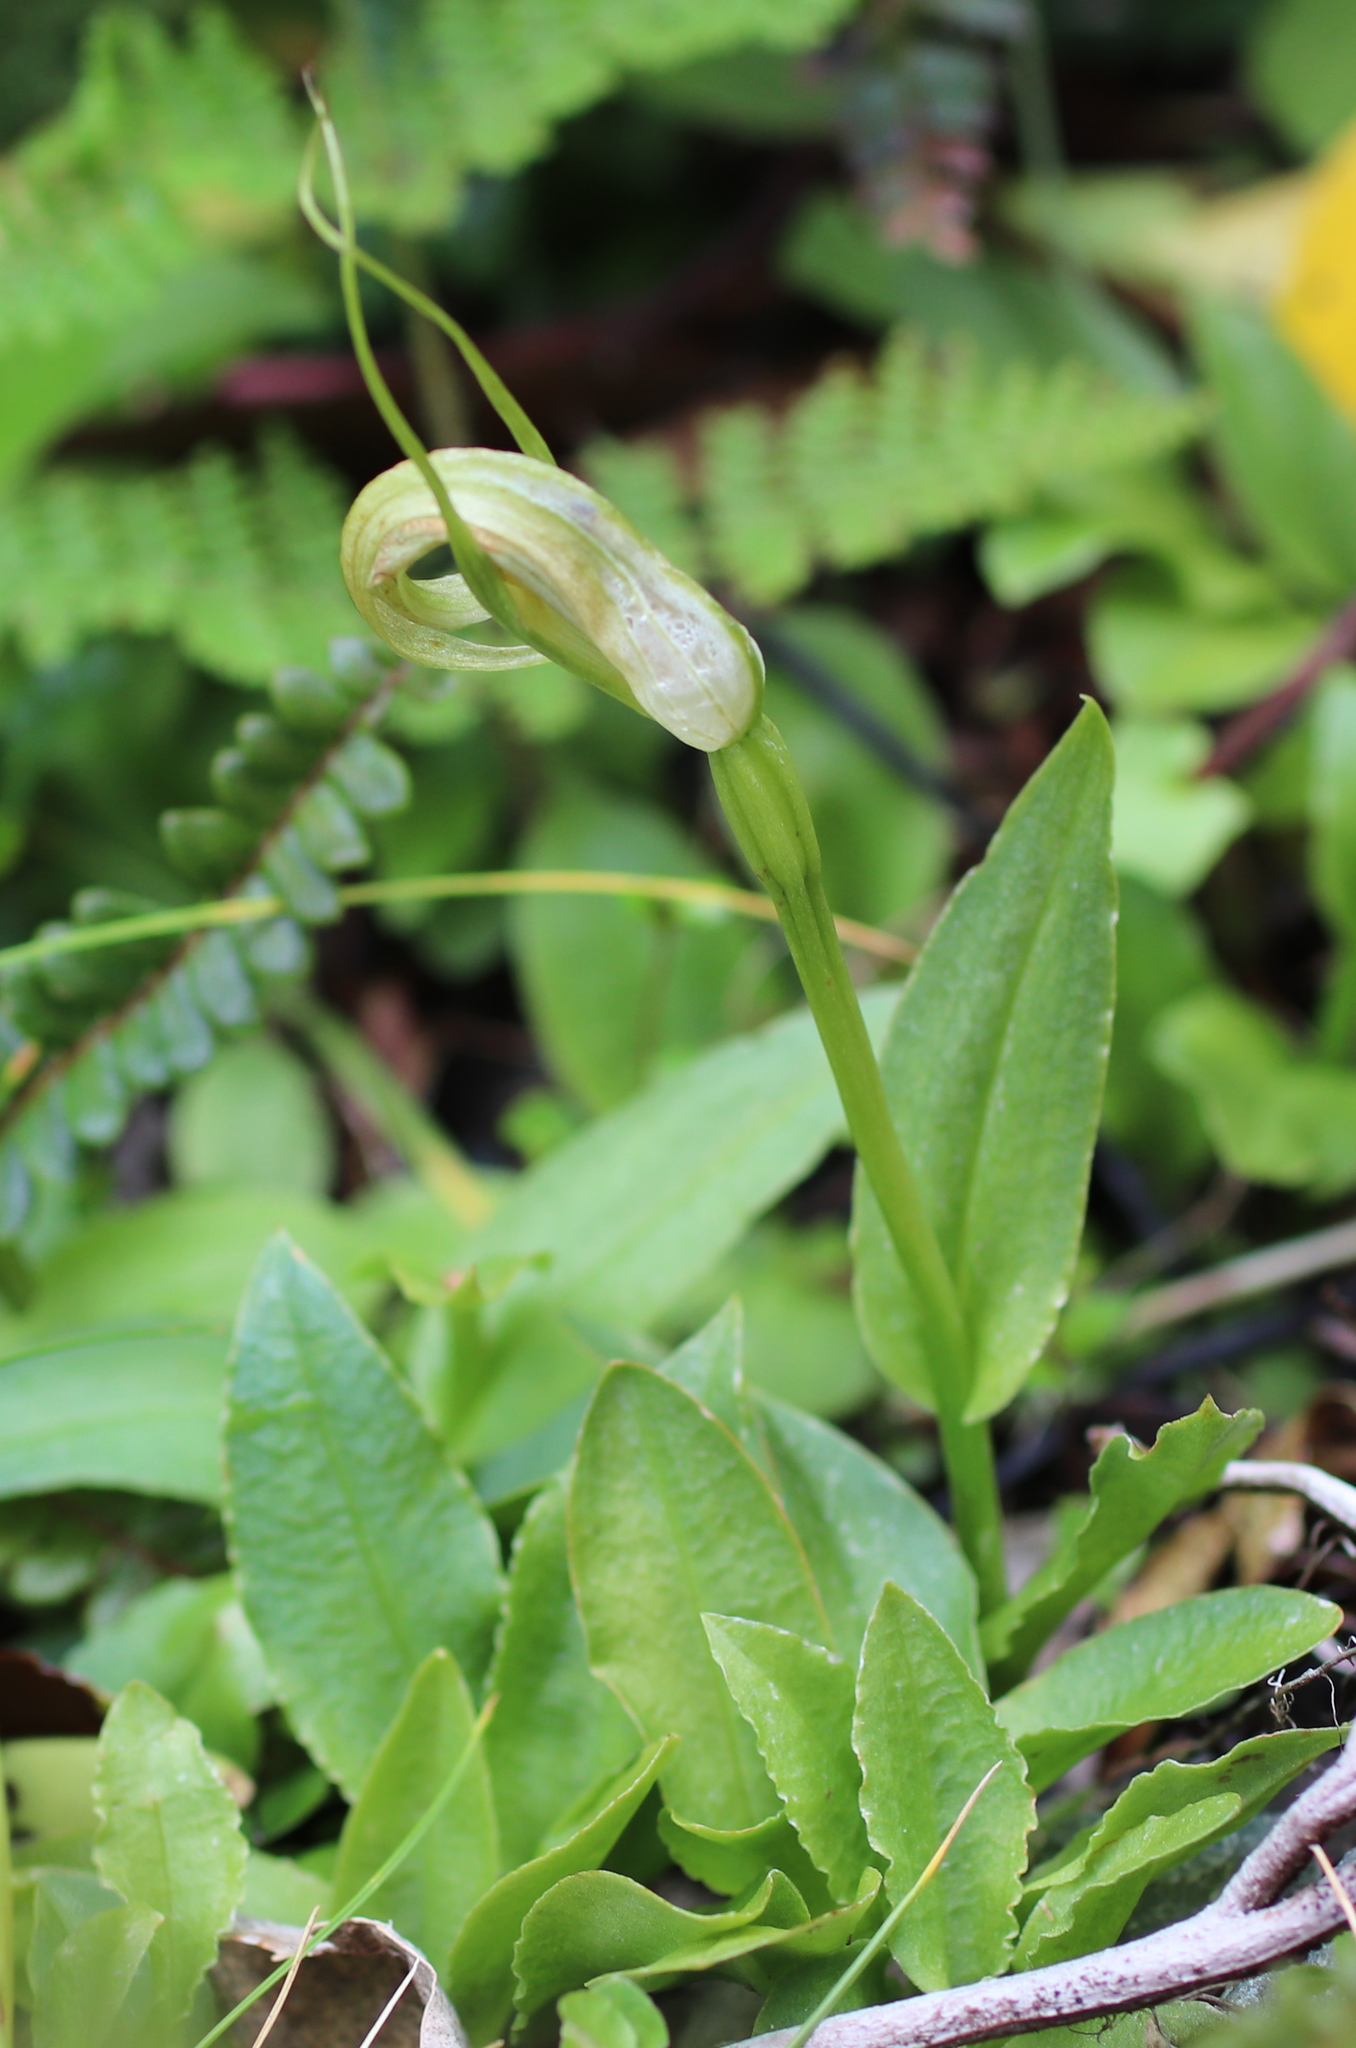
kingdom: Plantae
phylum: Tracheophyta
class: Liliopsida
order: Asparagales
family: Orchidaceae
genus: Pterostylis
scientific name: Pterostylis oliveri
